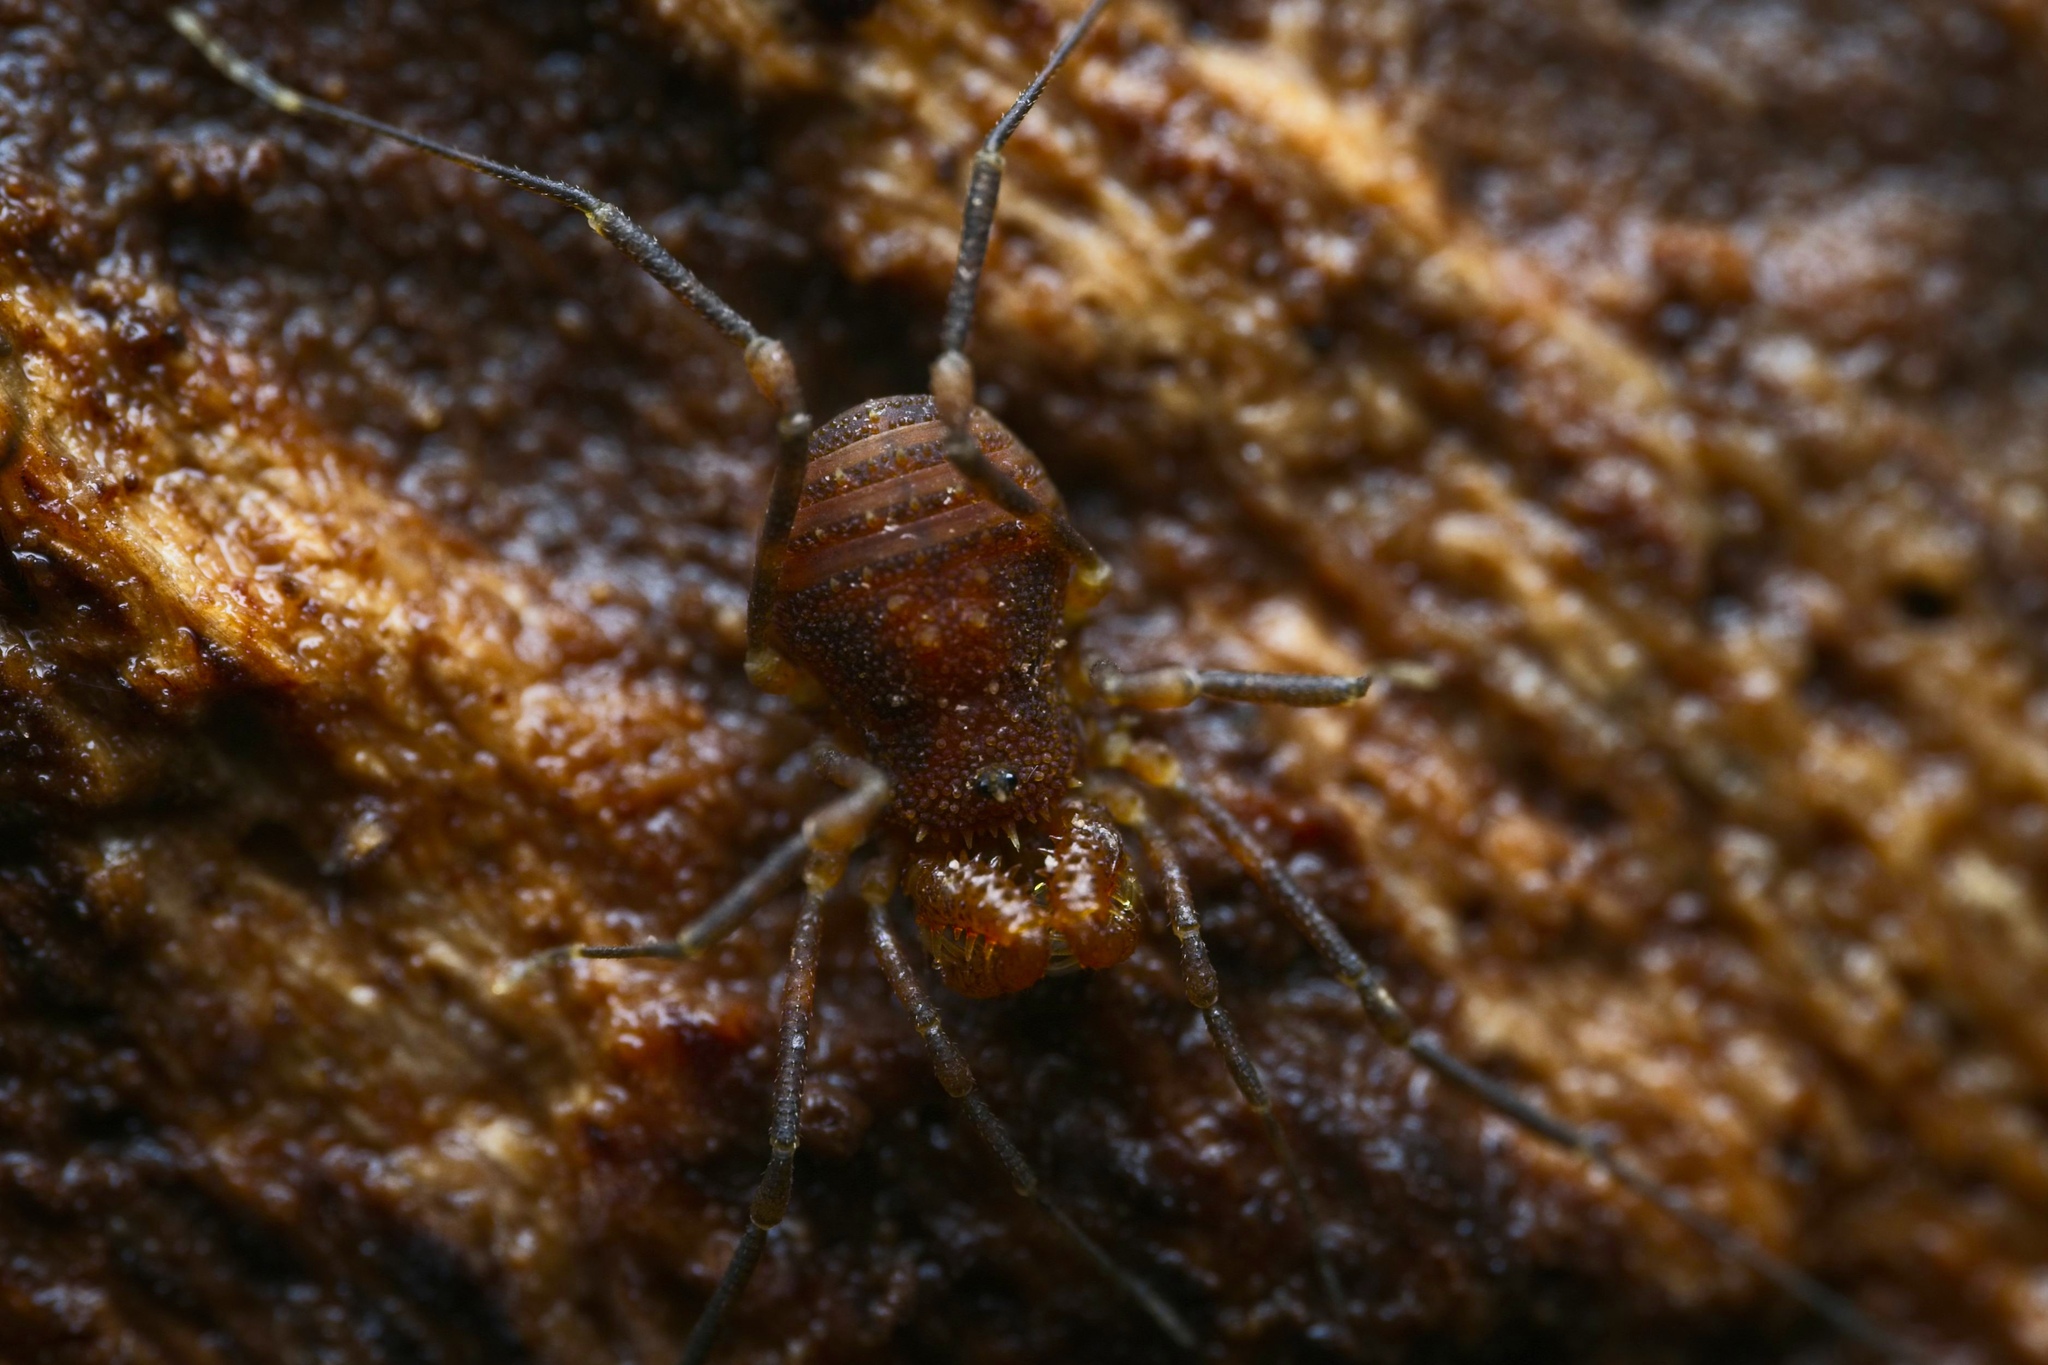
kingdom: Animalia
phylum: Arthropoda
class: Arachnida
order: Opiliones
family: Triaenonychidae
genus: Prasma
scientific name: Prasma tuberculata
